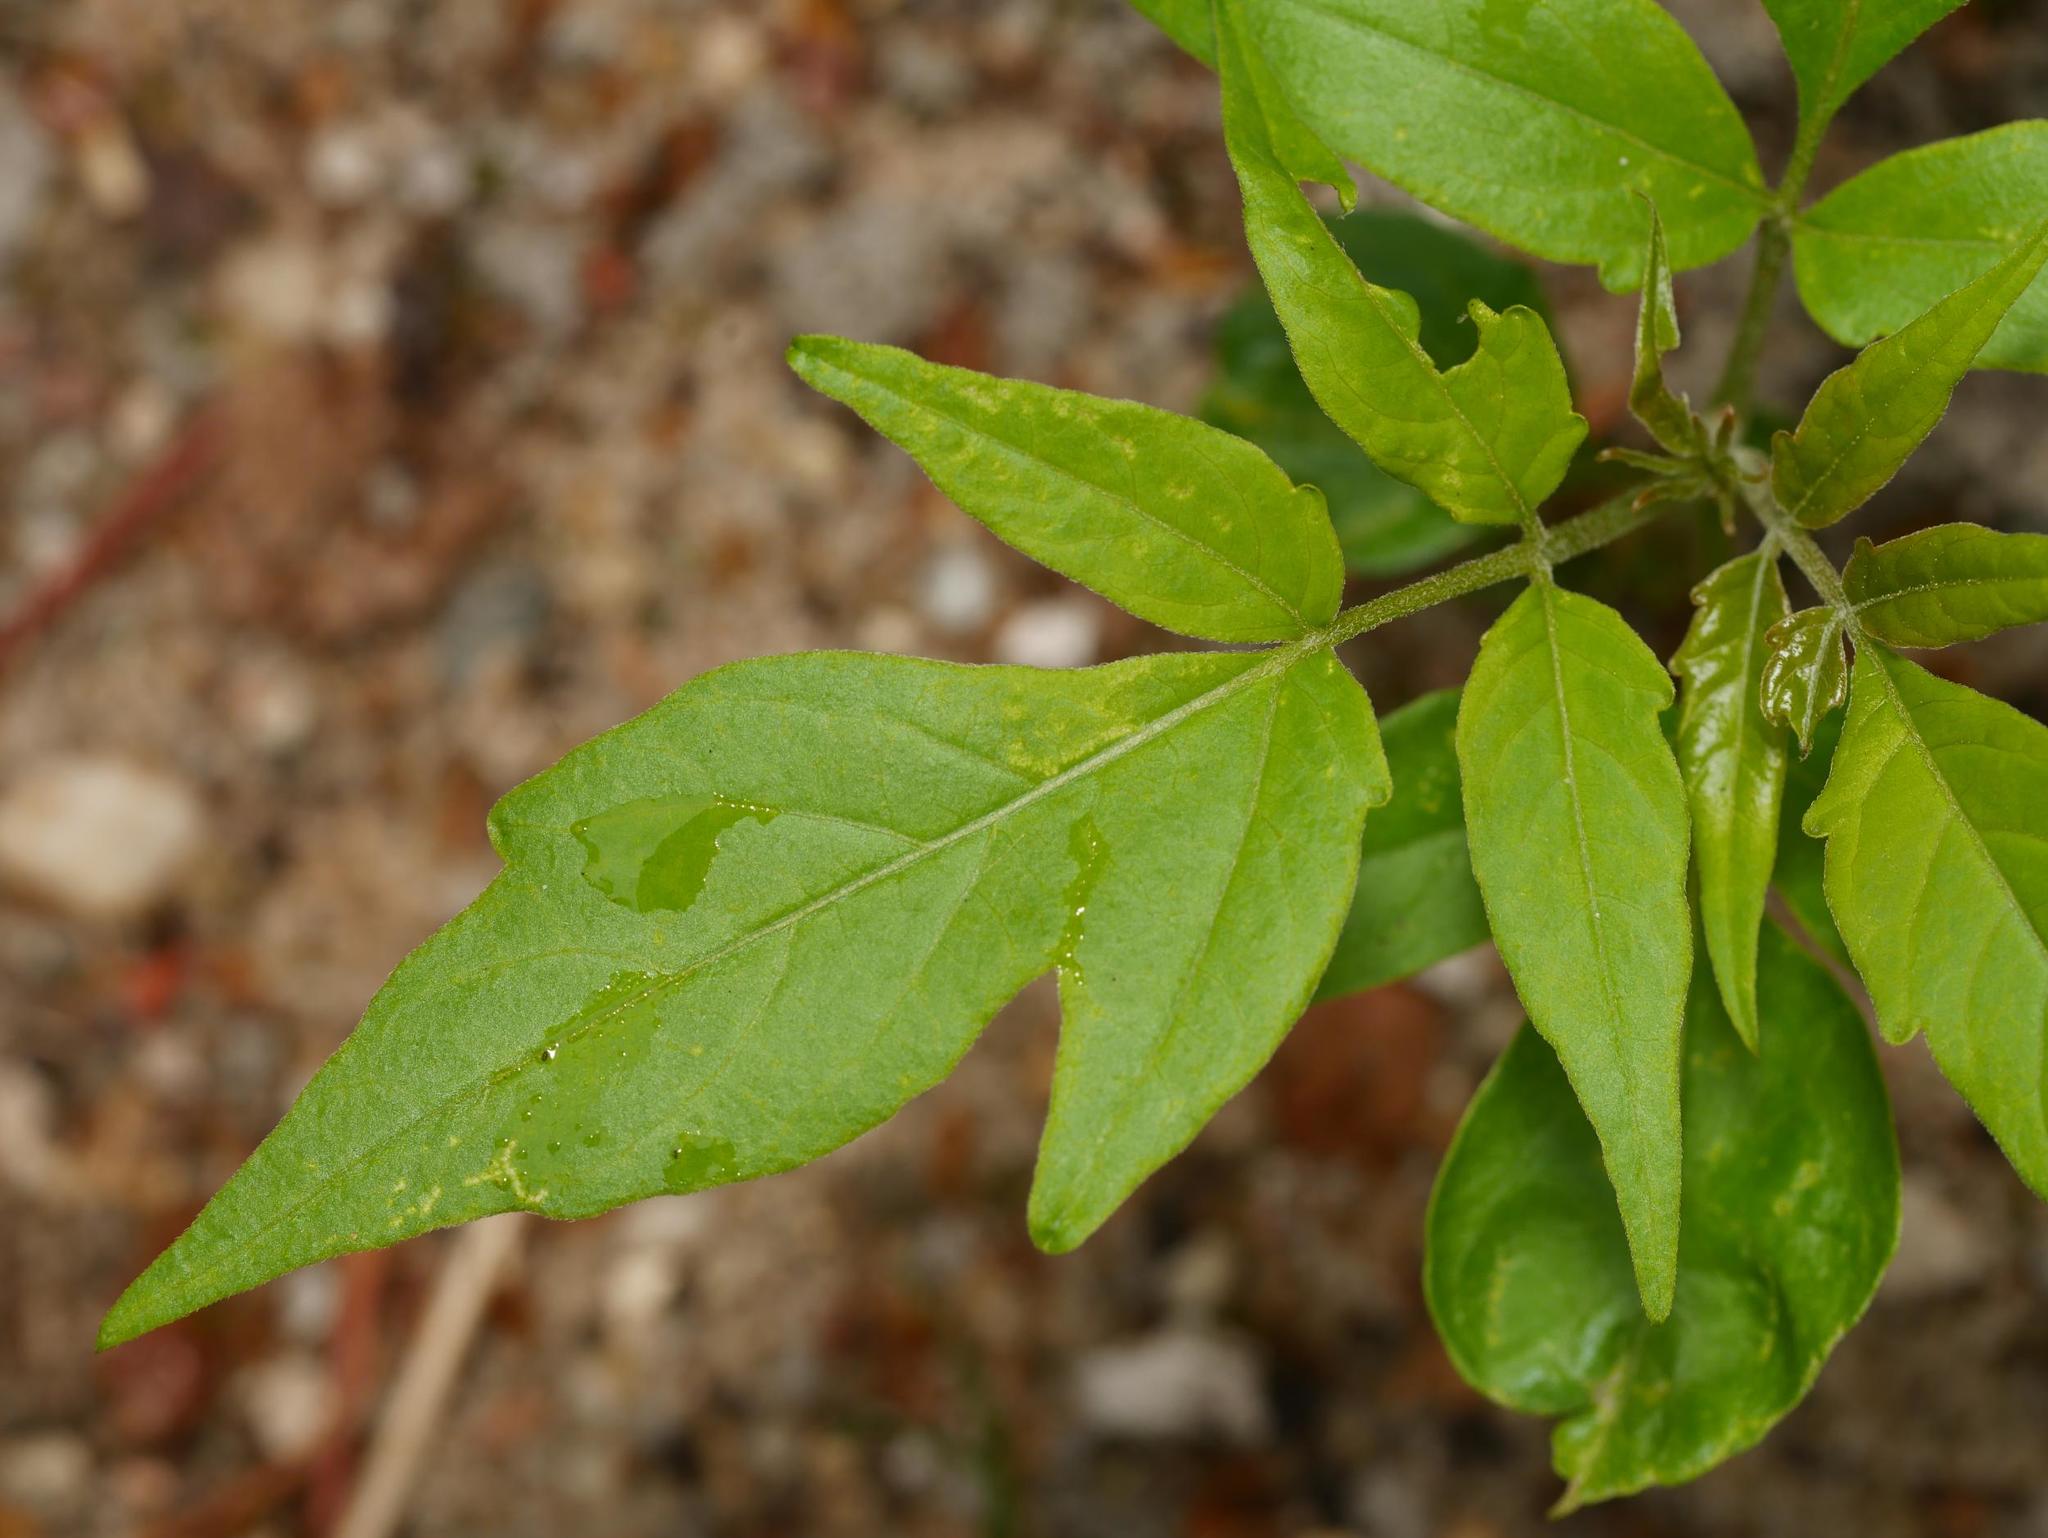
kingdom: Plantae
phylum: Tracheophyta
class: Magnoliopsida
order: Sapindales
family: Sapindaceae
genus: Acer
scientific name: Acer negundo
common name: Ashleaf maple
